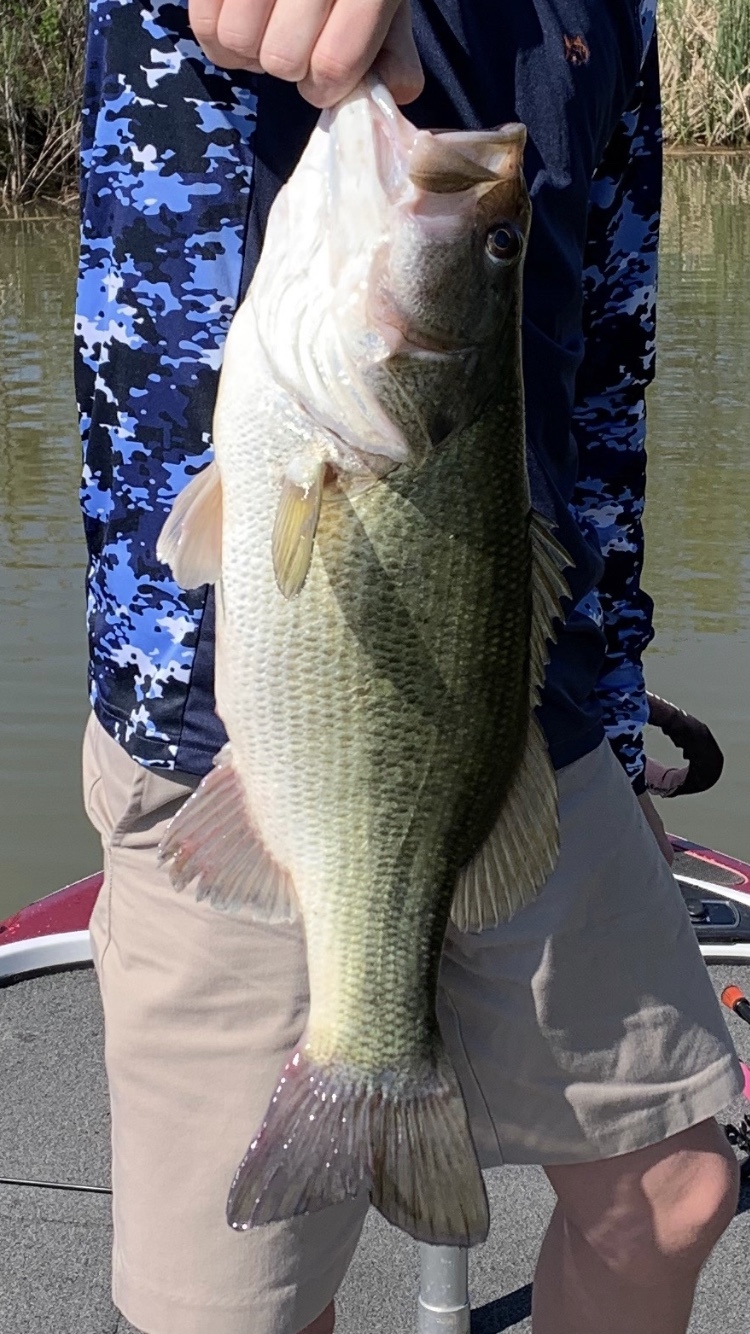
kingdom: Animalia
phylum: Chordata
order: Perciformes
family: Centrarchidae
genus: Micropterus
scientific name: Micropterus
